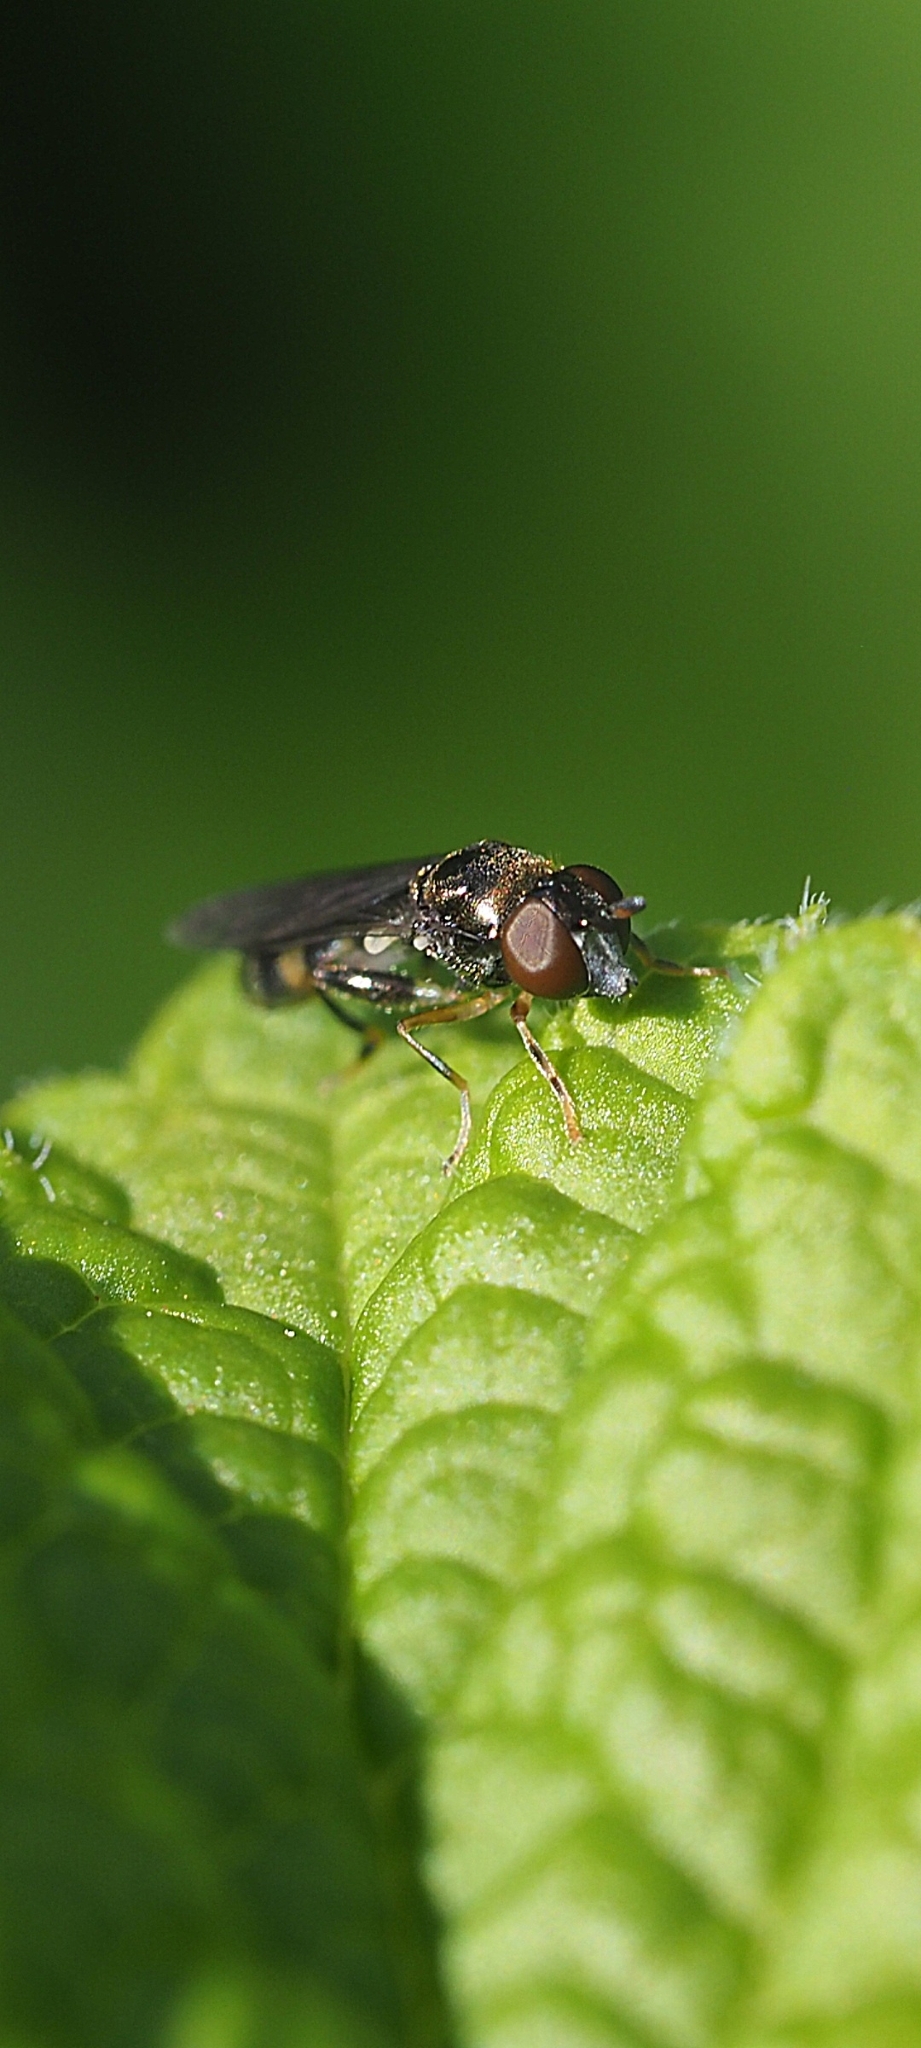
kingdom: Animalia
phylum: Arthropoda
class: Insecta
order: Diptera
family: Syrphidae
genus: Neoascia
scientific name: Neoascia
